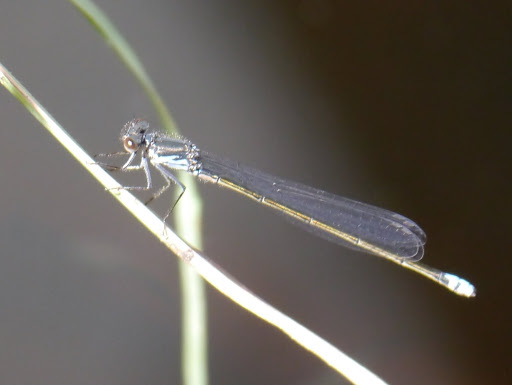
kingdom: Animalia
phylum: Arthropoda
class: Insecta
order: Odonata
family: Coenagrionidae
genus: Pseudagrion
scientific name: Pseudagrion deningi
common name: Dening's sprite
